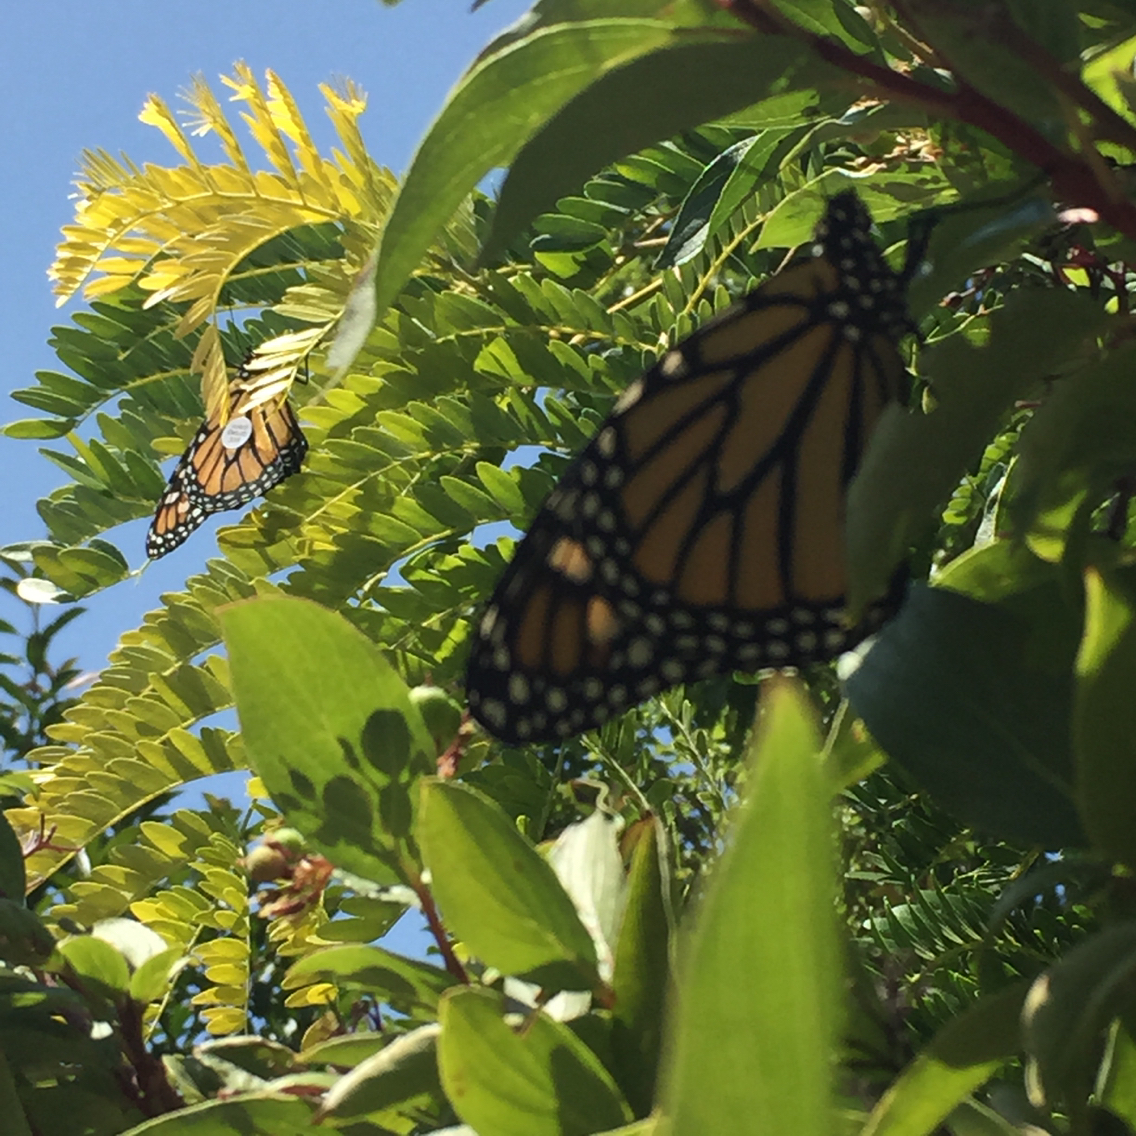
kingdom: Animalia
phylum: Arthropoda
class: Insecta
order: Lepidoptera
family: Nymphalidae
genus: Danaus
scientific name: Danaus plexippus
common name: Monarch
